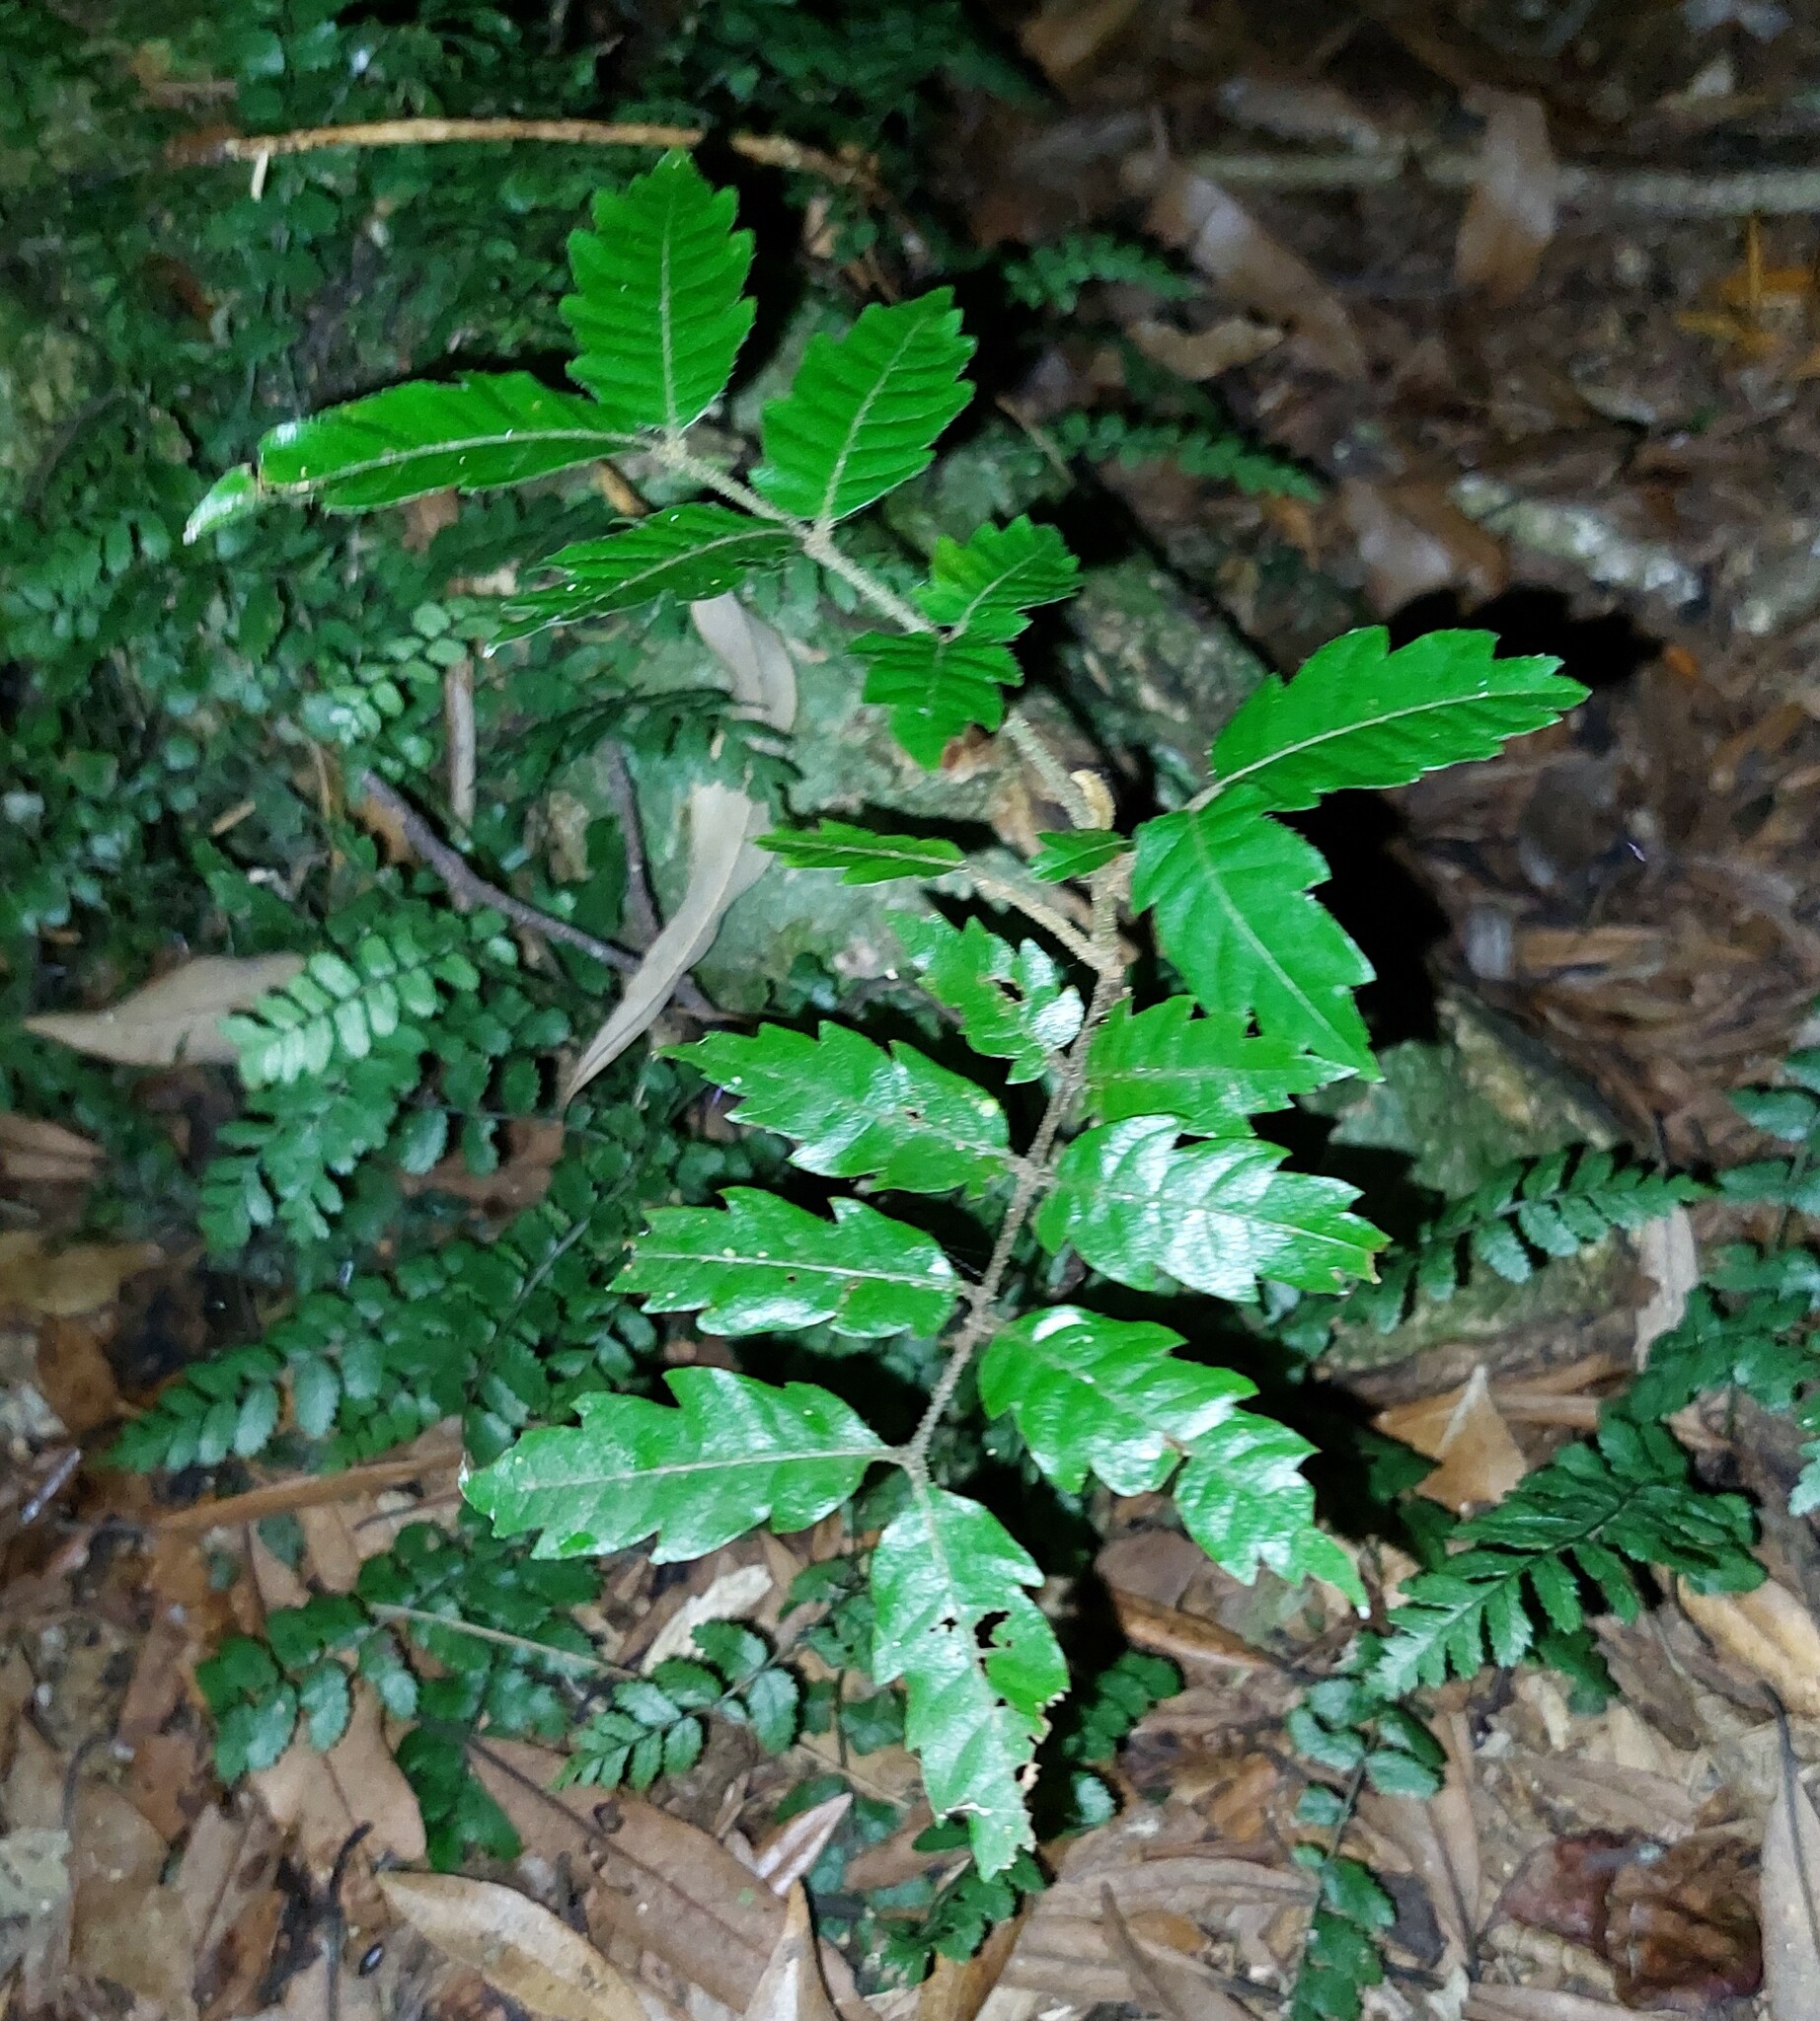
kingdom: Plantae
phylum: Tracheophyta
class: Magnoliopsida
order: Sapindales
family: Sapindaceae
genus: Alectryon
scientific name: Alectryon excelsus
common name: Three kings titoki
